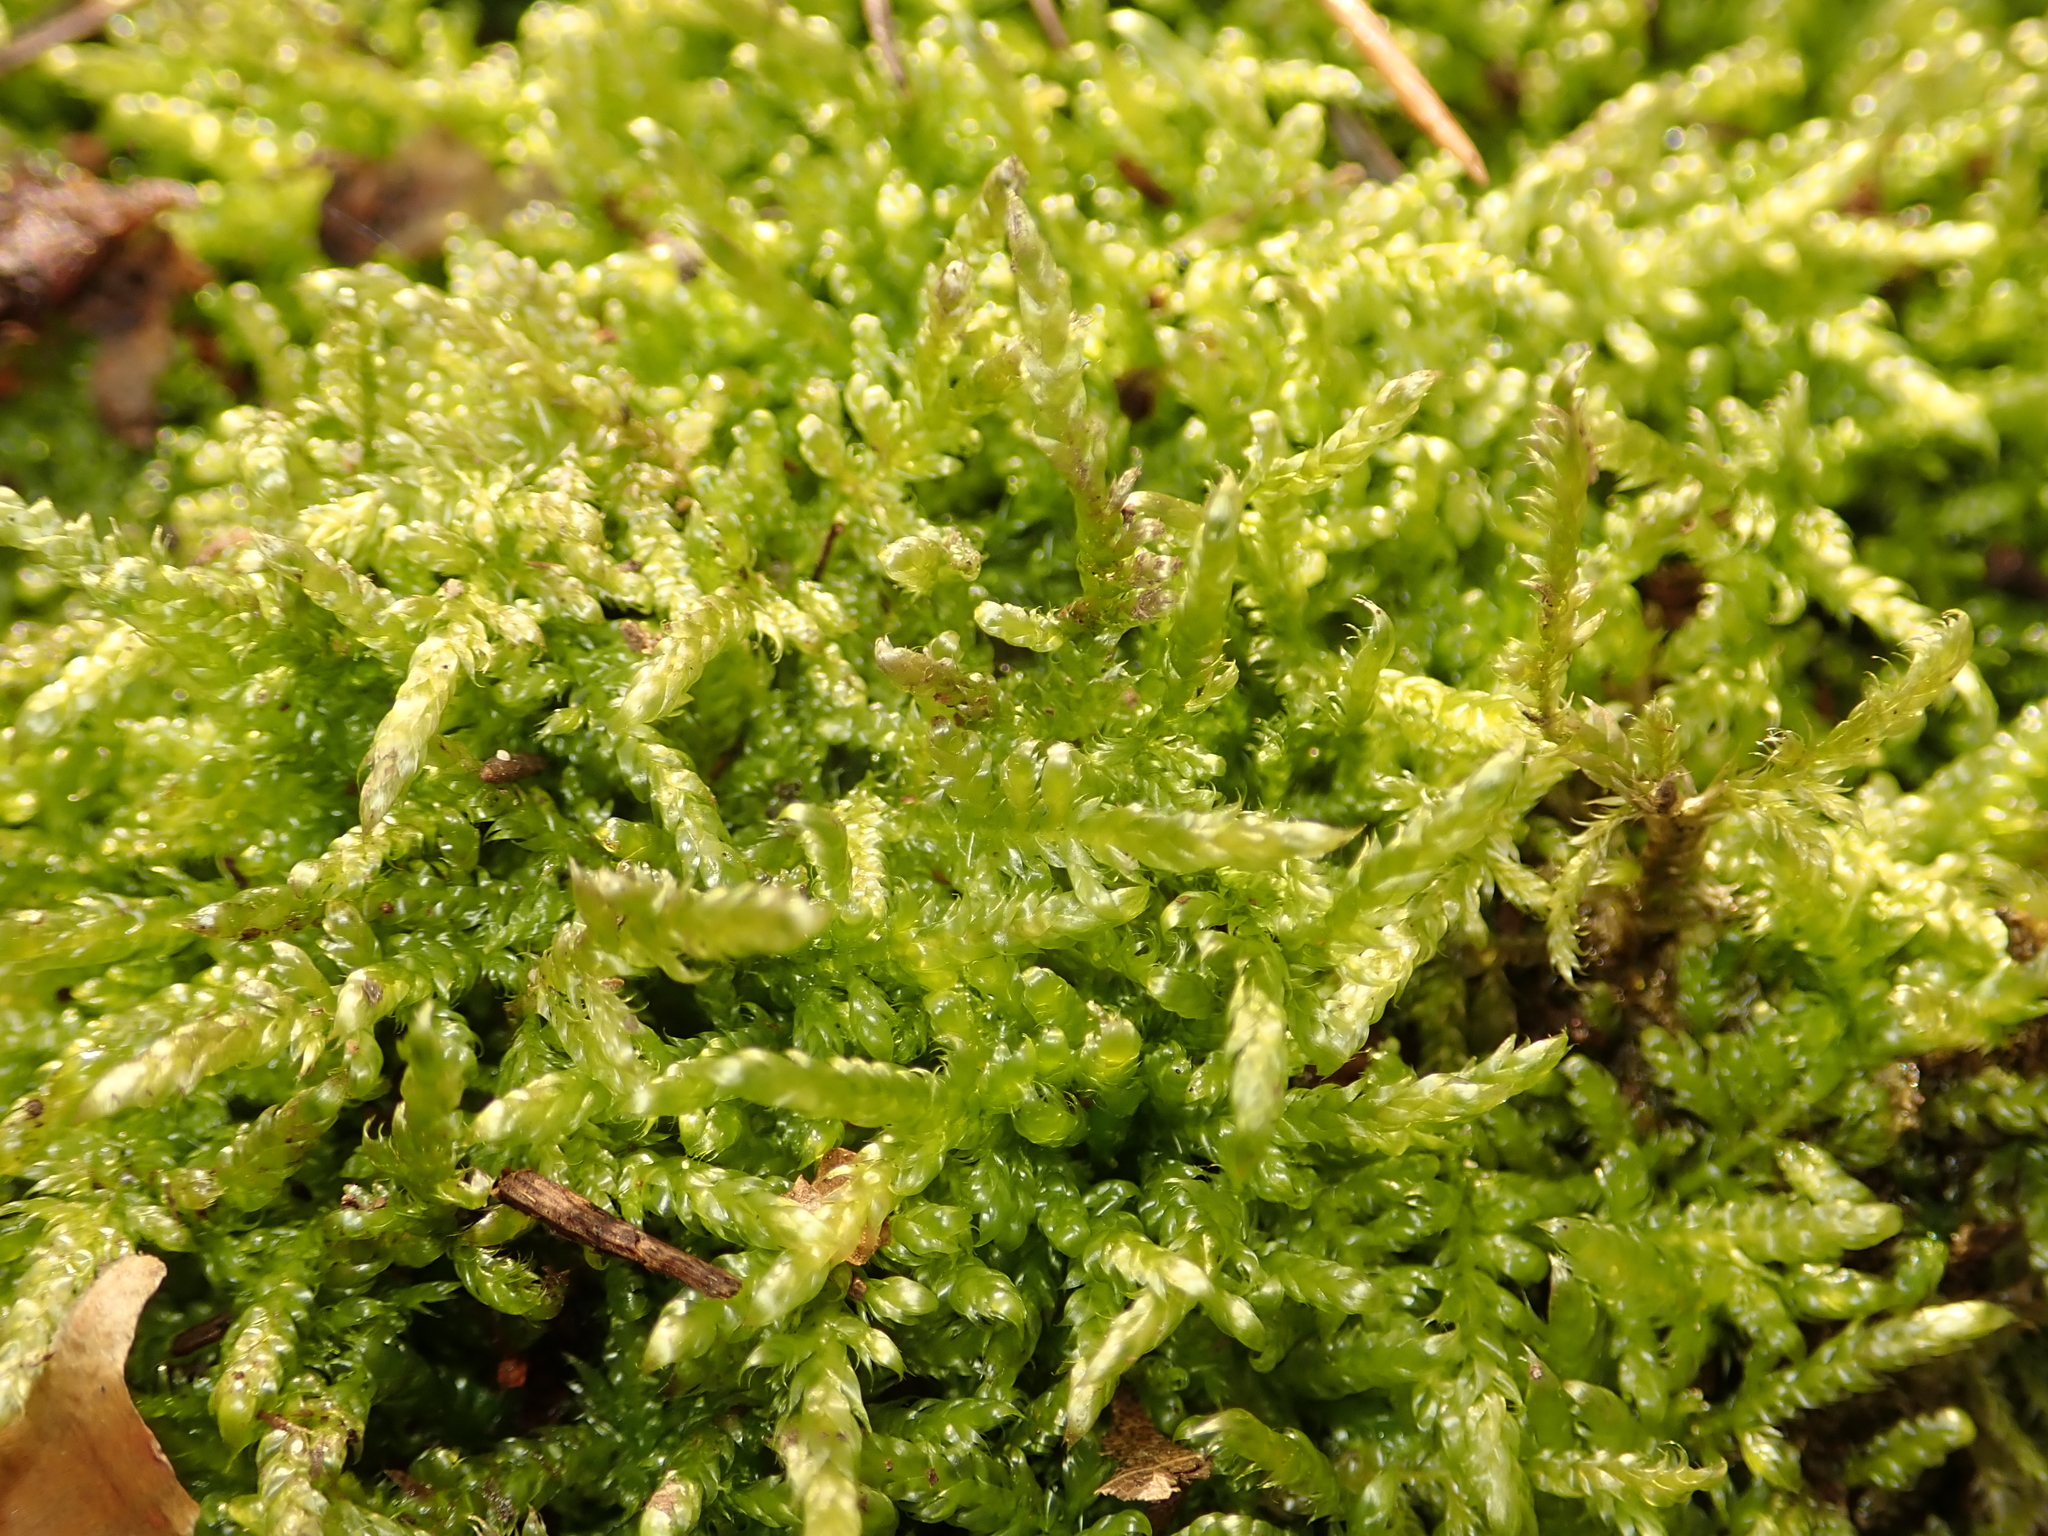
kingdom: Plantae
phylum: Bryophyta
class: Bryopsida
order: Hypnales
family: Hypnaceae
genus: Hypnum
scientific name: Hypnum cupressiforme
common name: Cypress-leaved plait-moss
